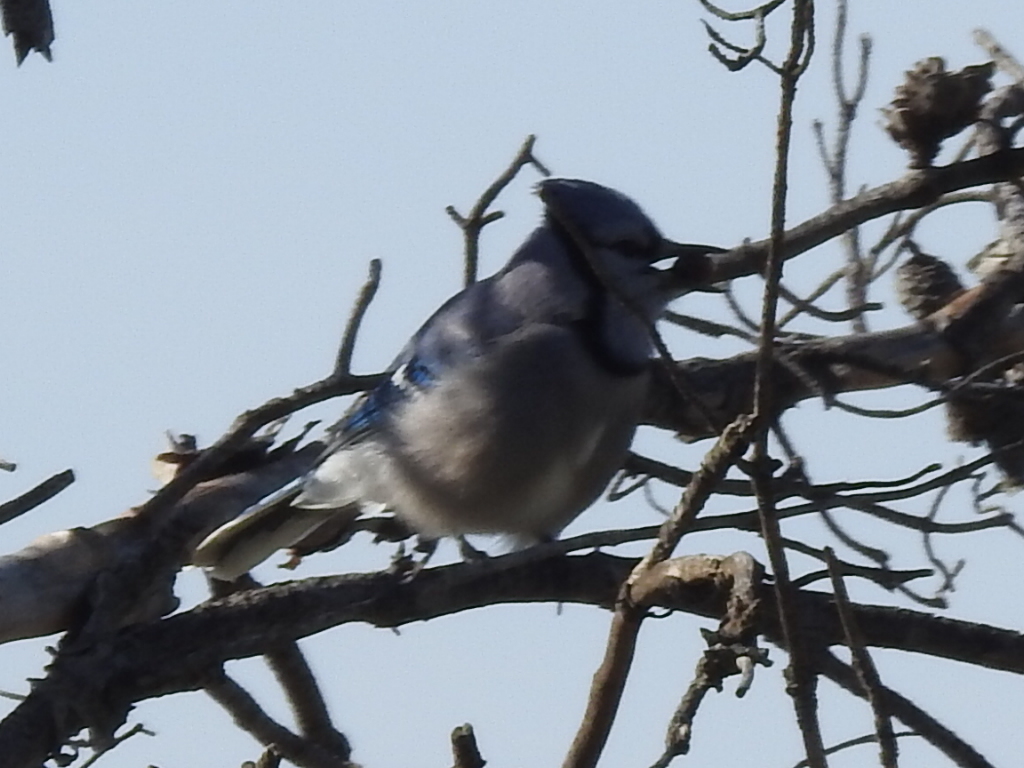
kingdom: Animalia
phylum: Chordata
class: Aves
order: Passeriformes
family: Corvidae
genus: Cyanocitta
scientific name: Cyanocitta cristata
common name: Blue jay
